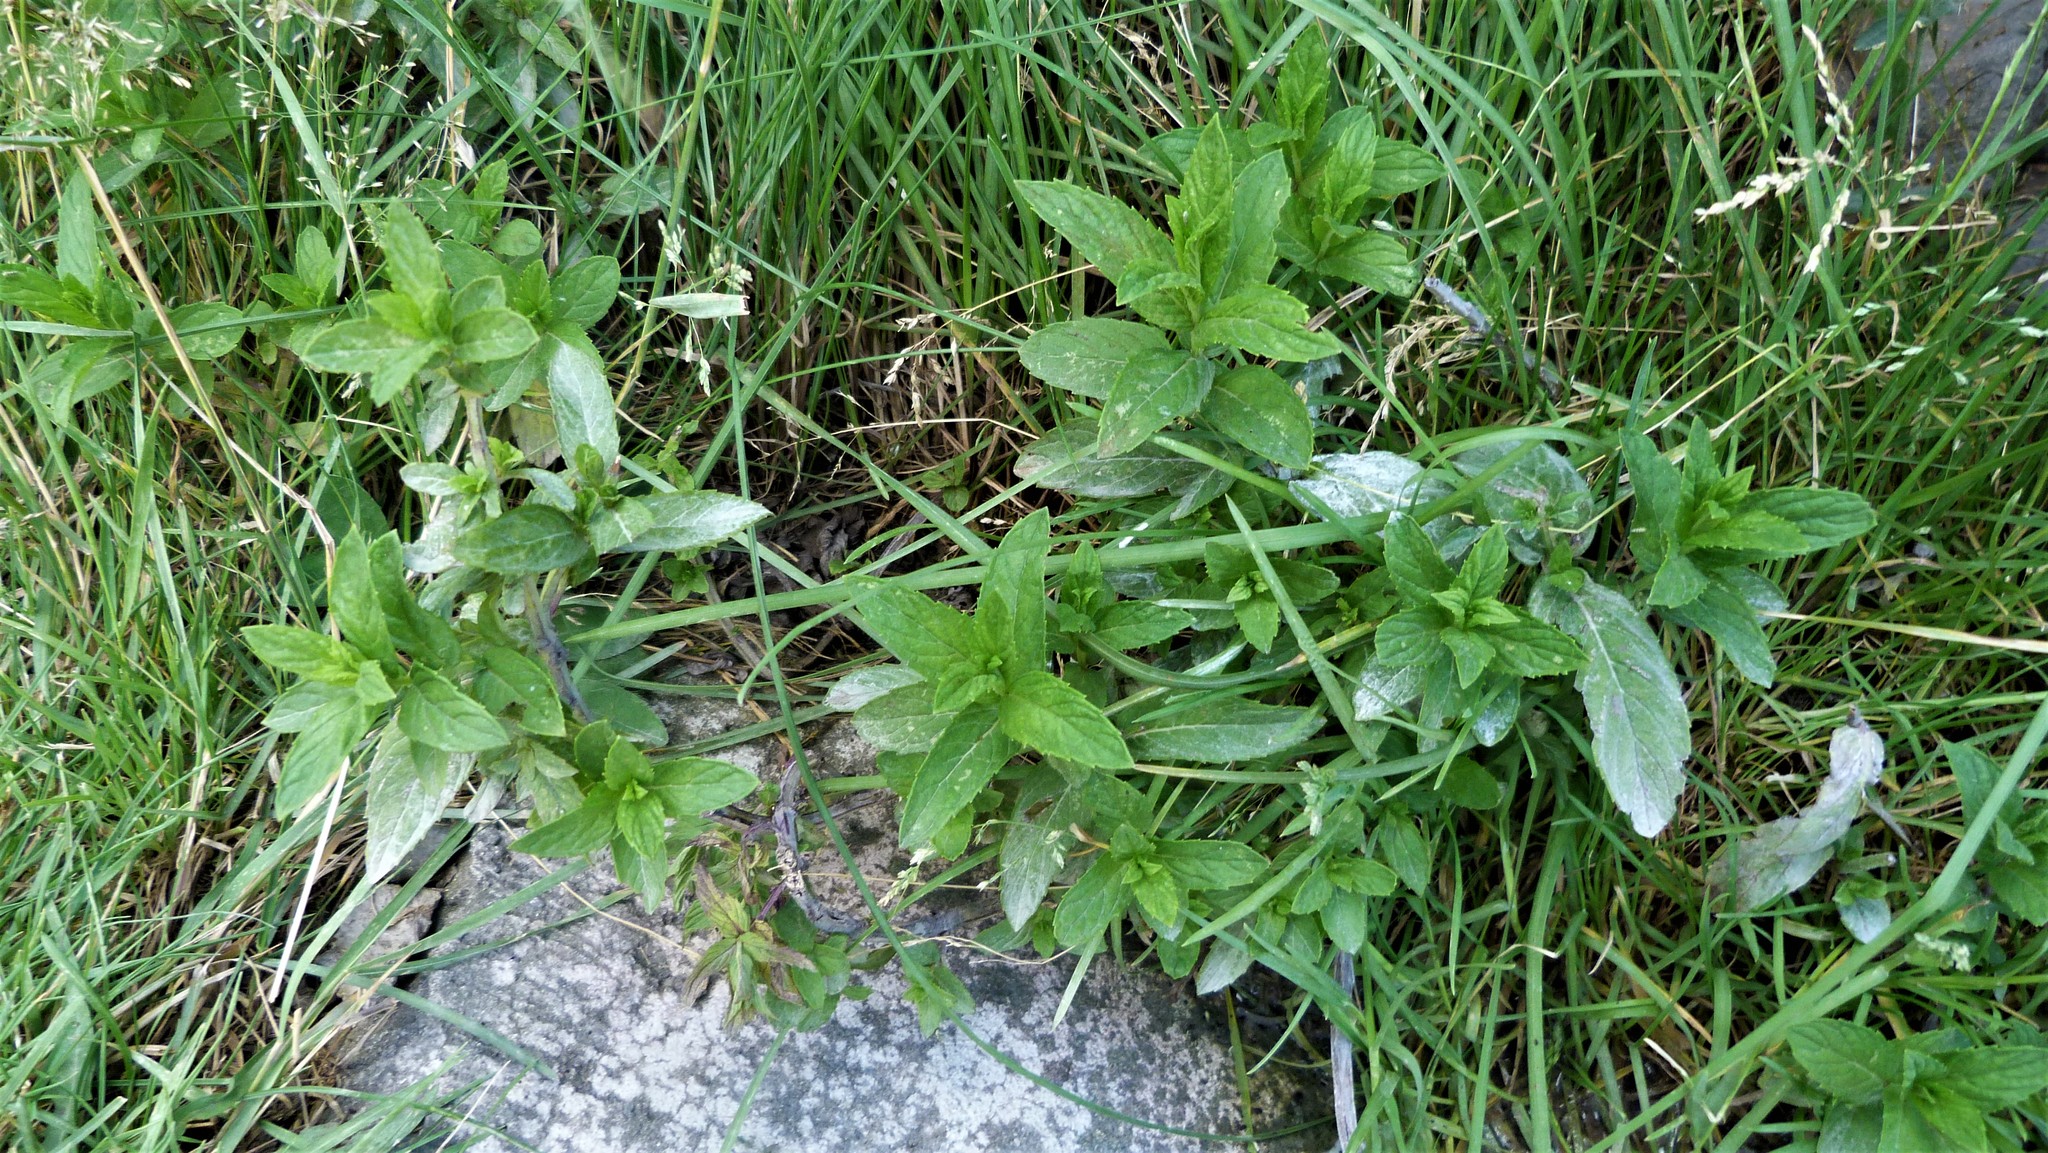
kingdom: Plantae
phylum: Tracheophyta
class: Magnoliopsida
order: Lamiales
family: Lamiaceae
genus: Mentha
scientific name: Mentha spicata
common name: Spearmint
